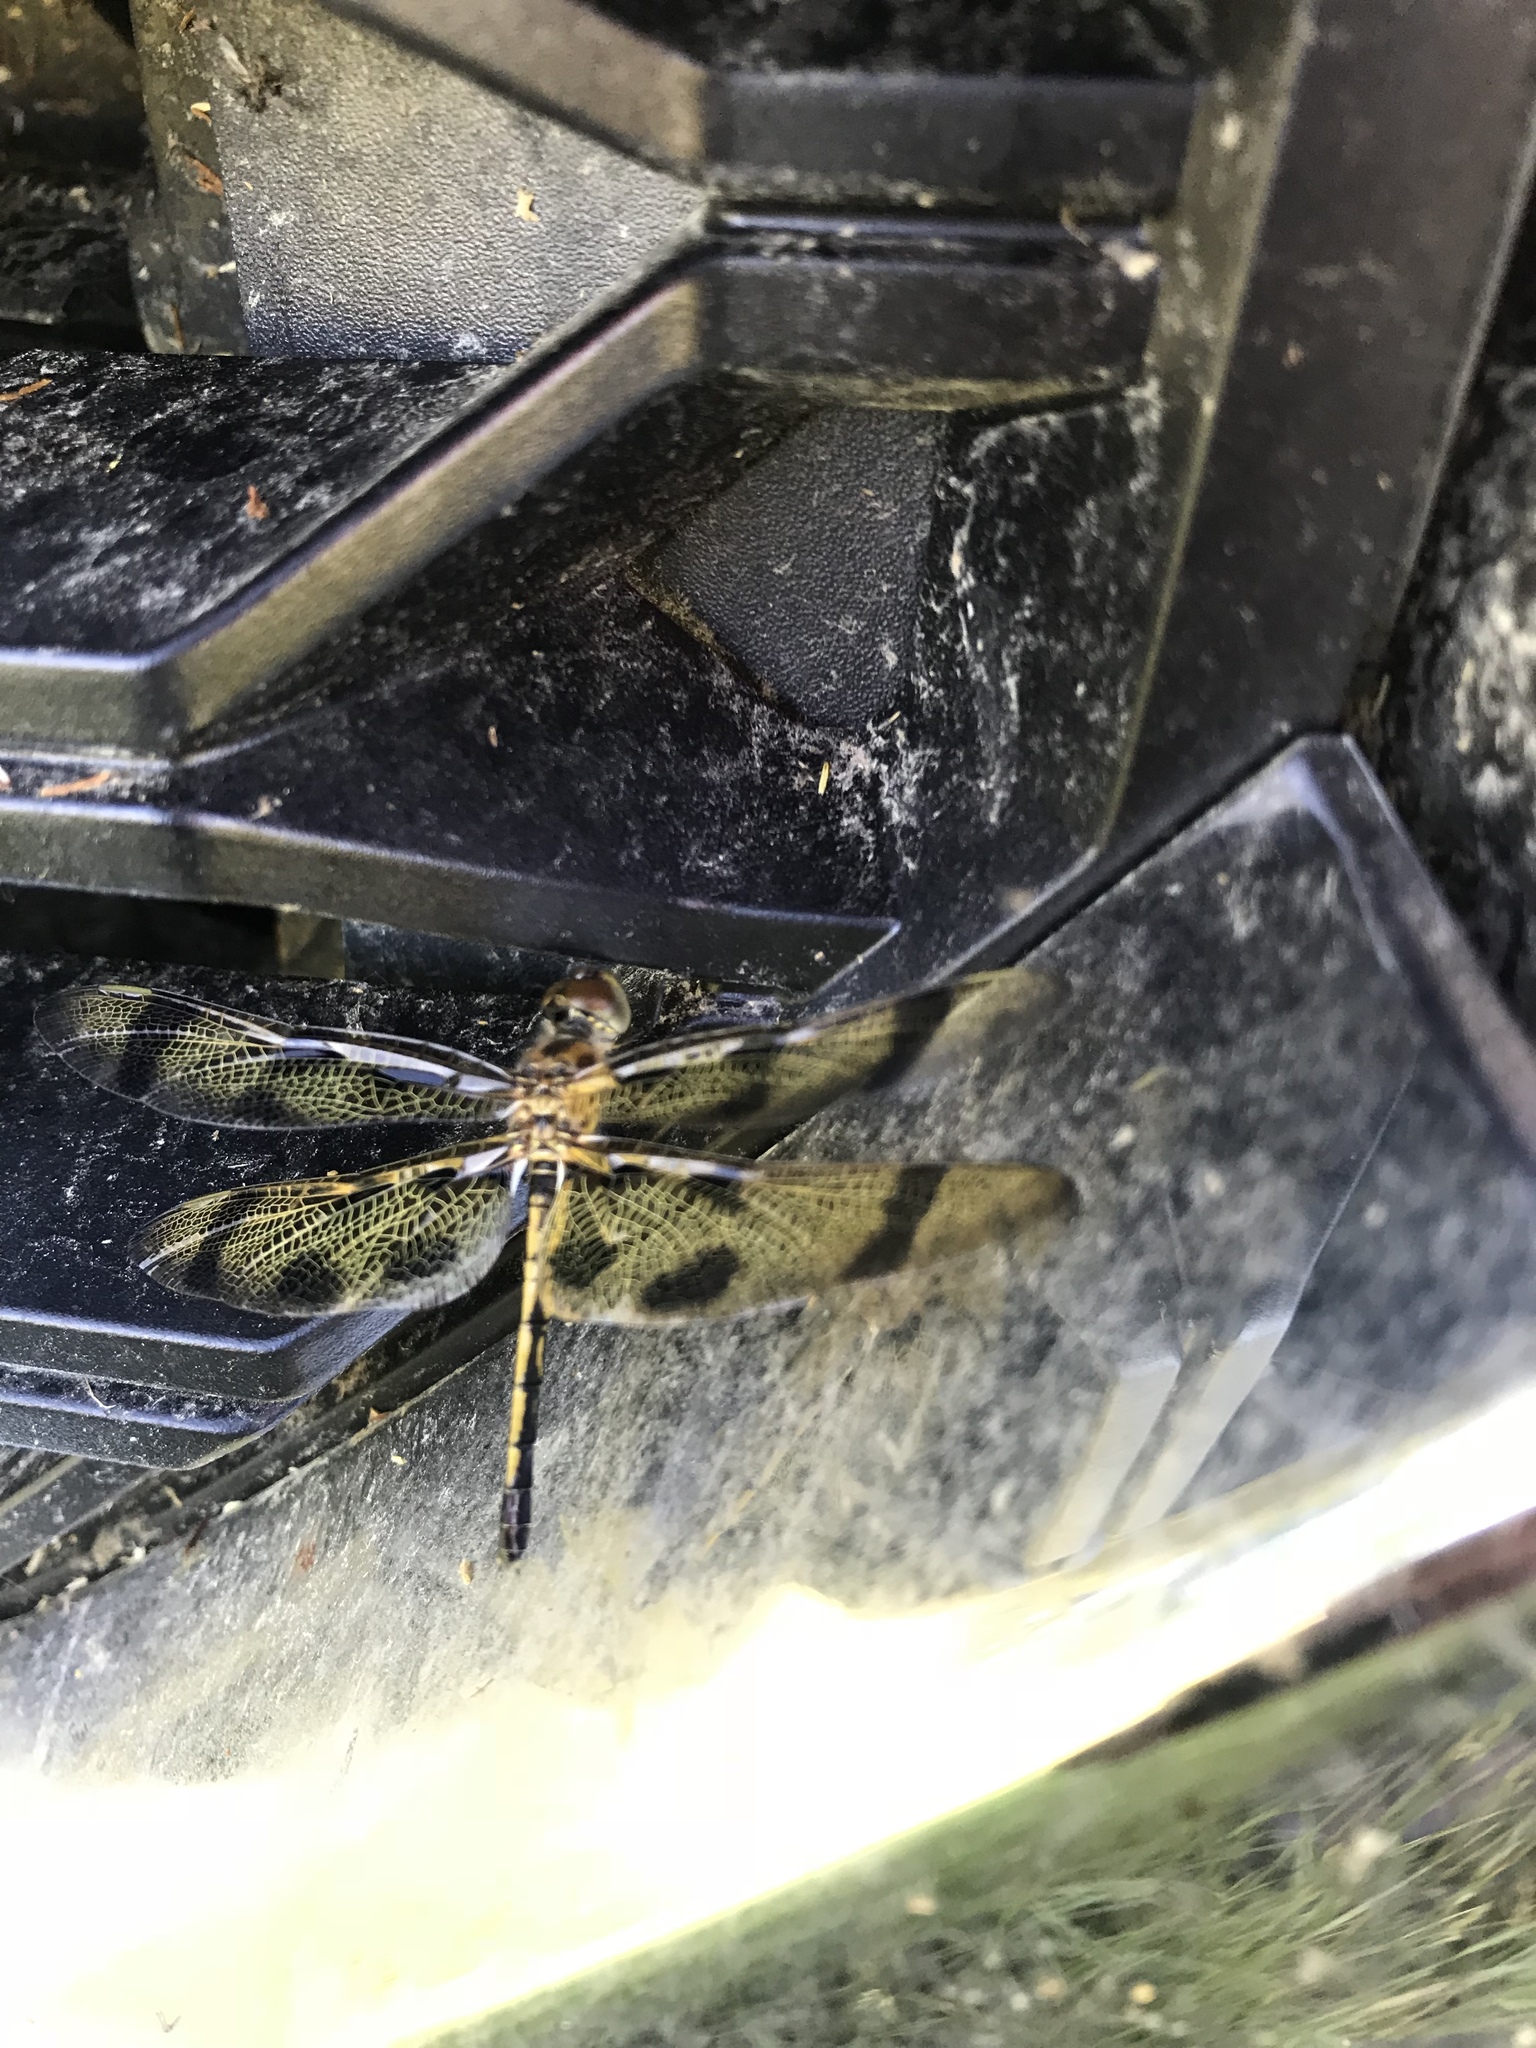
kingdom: Animalia
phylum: Arthropoda
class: Insecta
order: Odonata
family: Libellulidae
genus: Celithemis
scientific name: Celithemis eponina
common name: Halloween pennant
